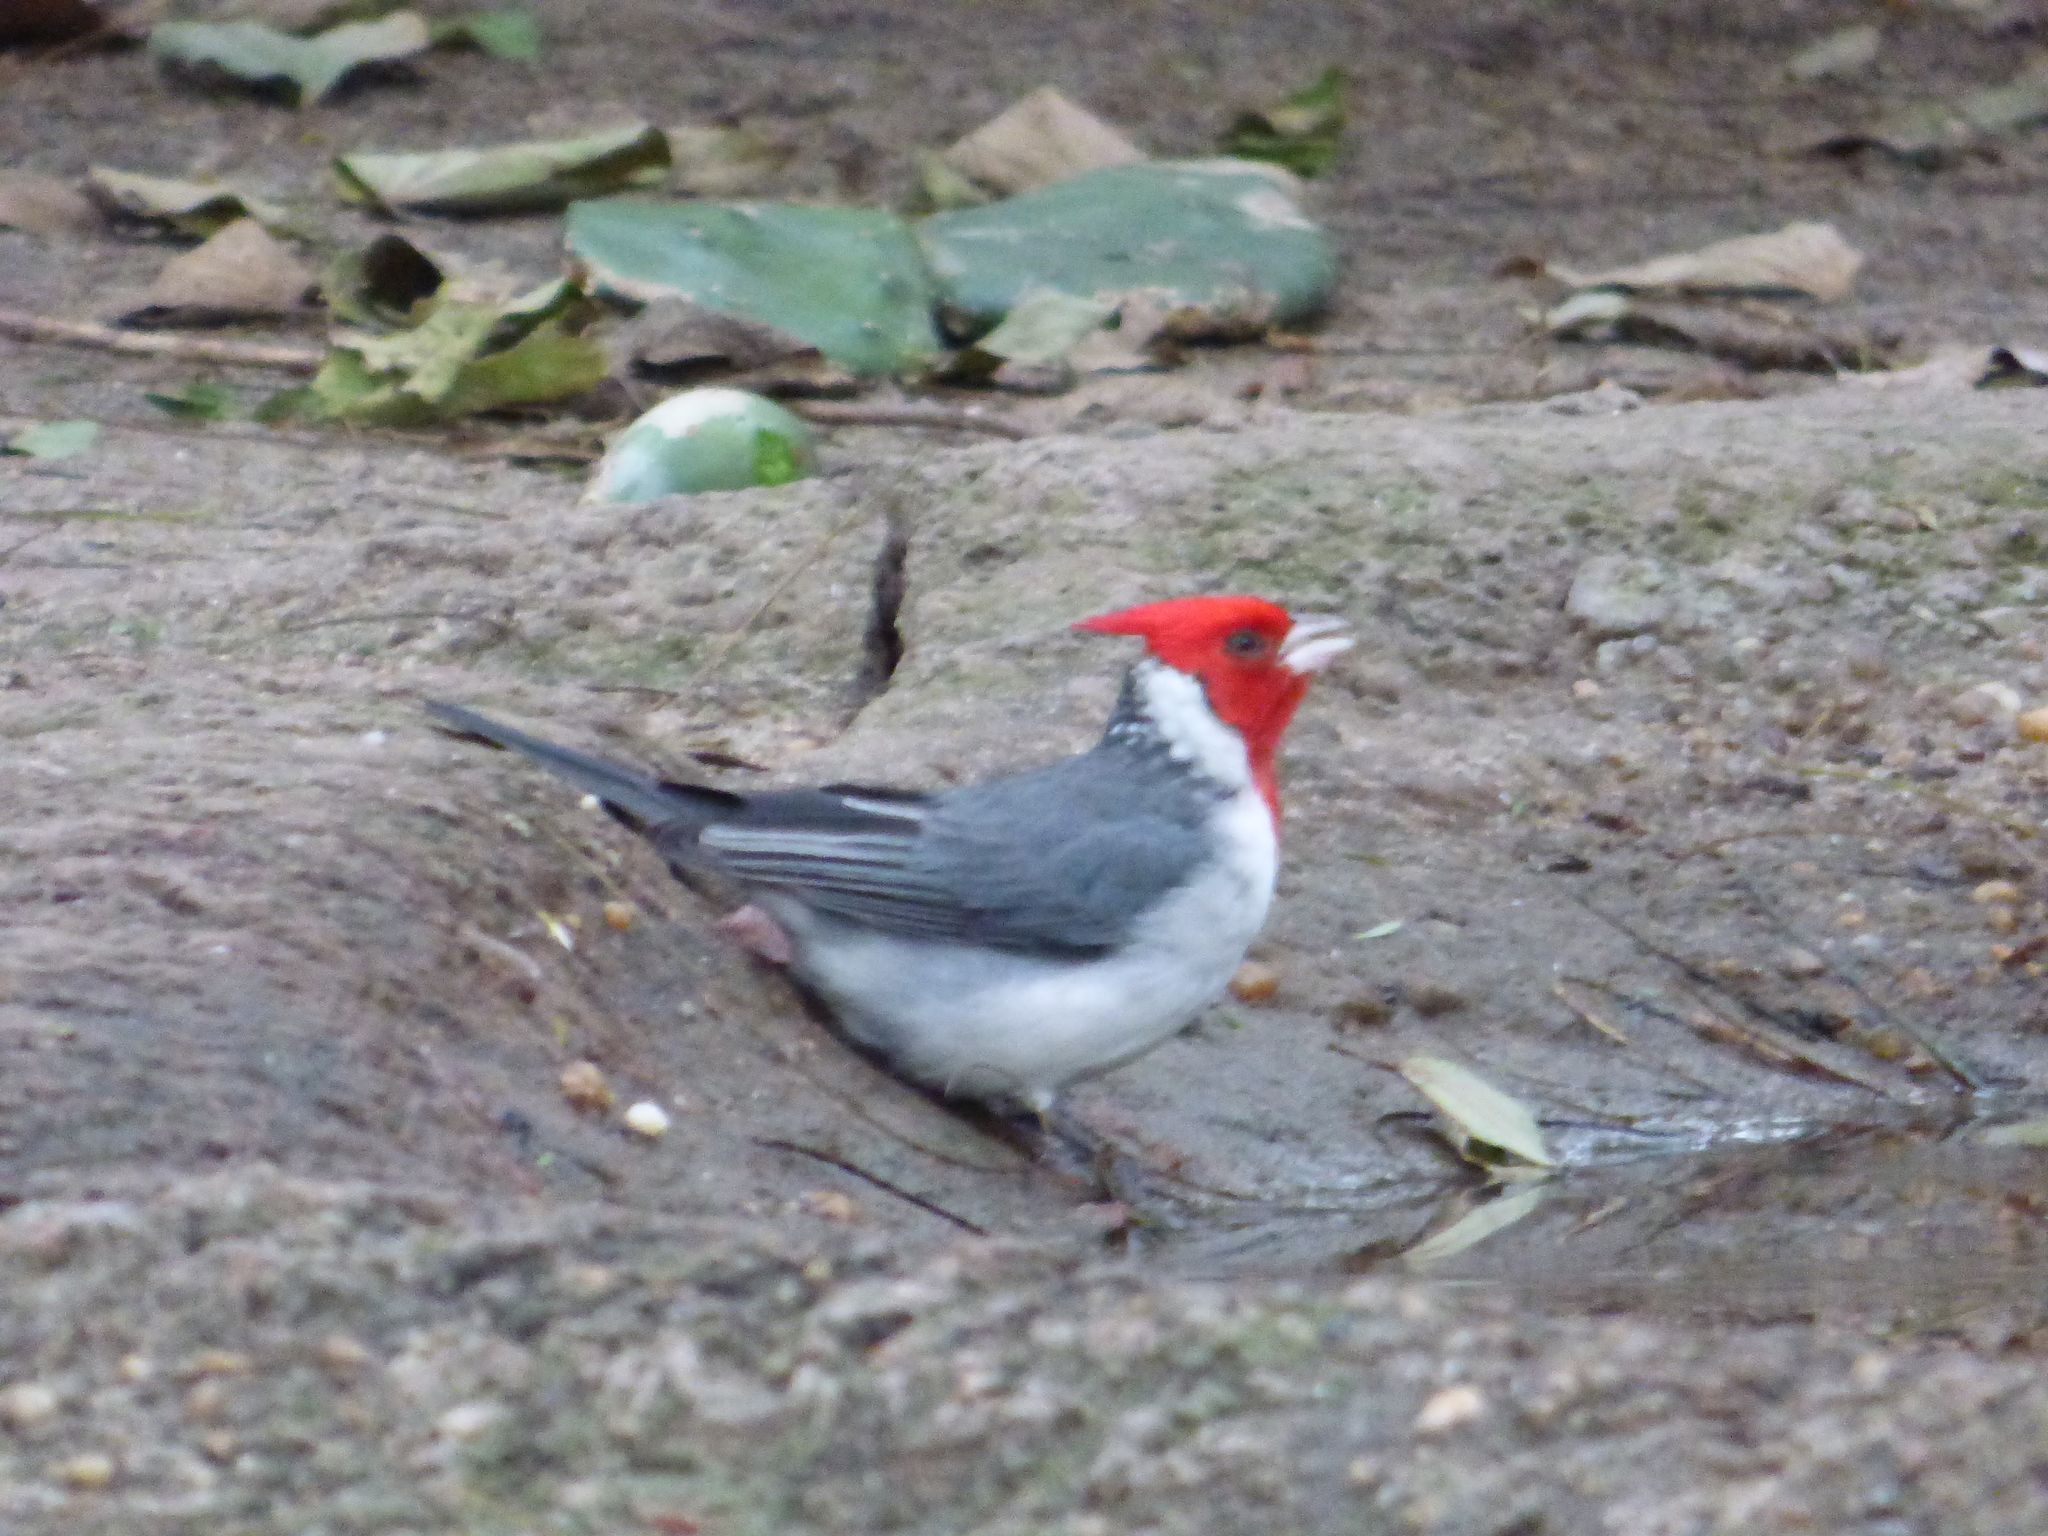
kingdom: Animalia
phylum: Chordata
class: Aves
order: Passeriformes
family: Thraupidae
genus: Paroaria
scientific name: Paroaria coronata
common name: Red-crested cardinal
